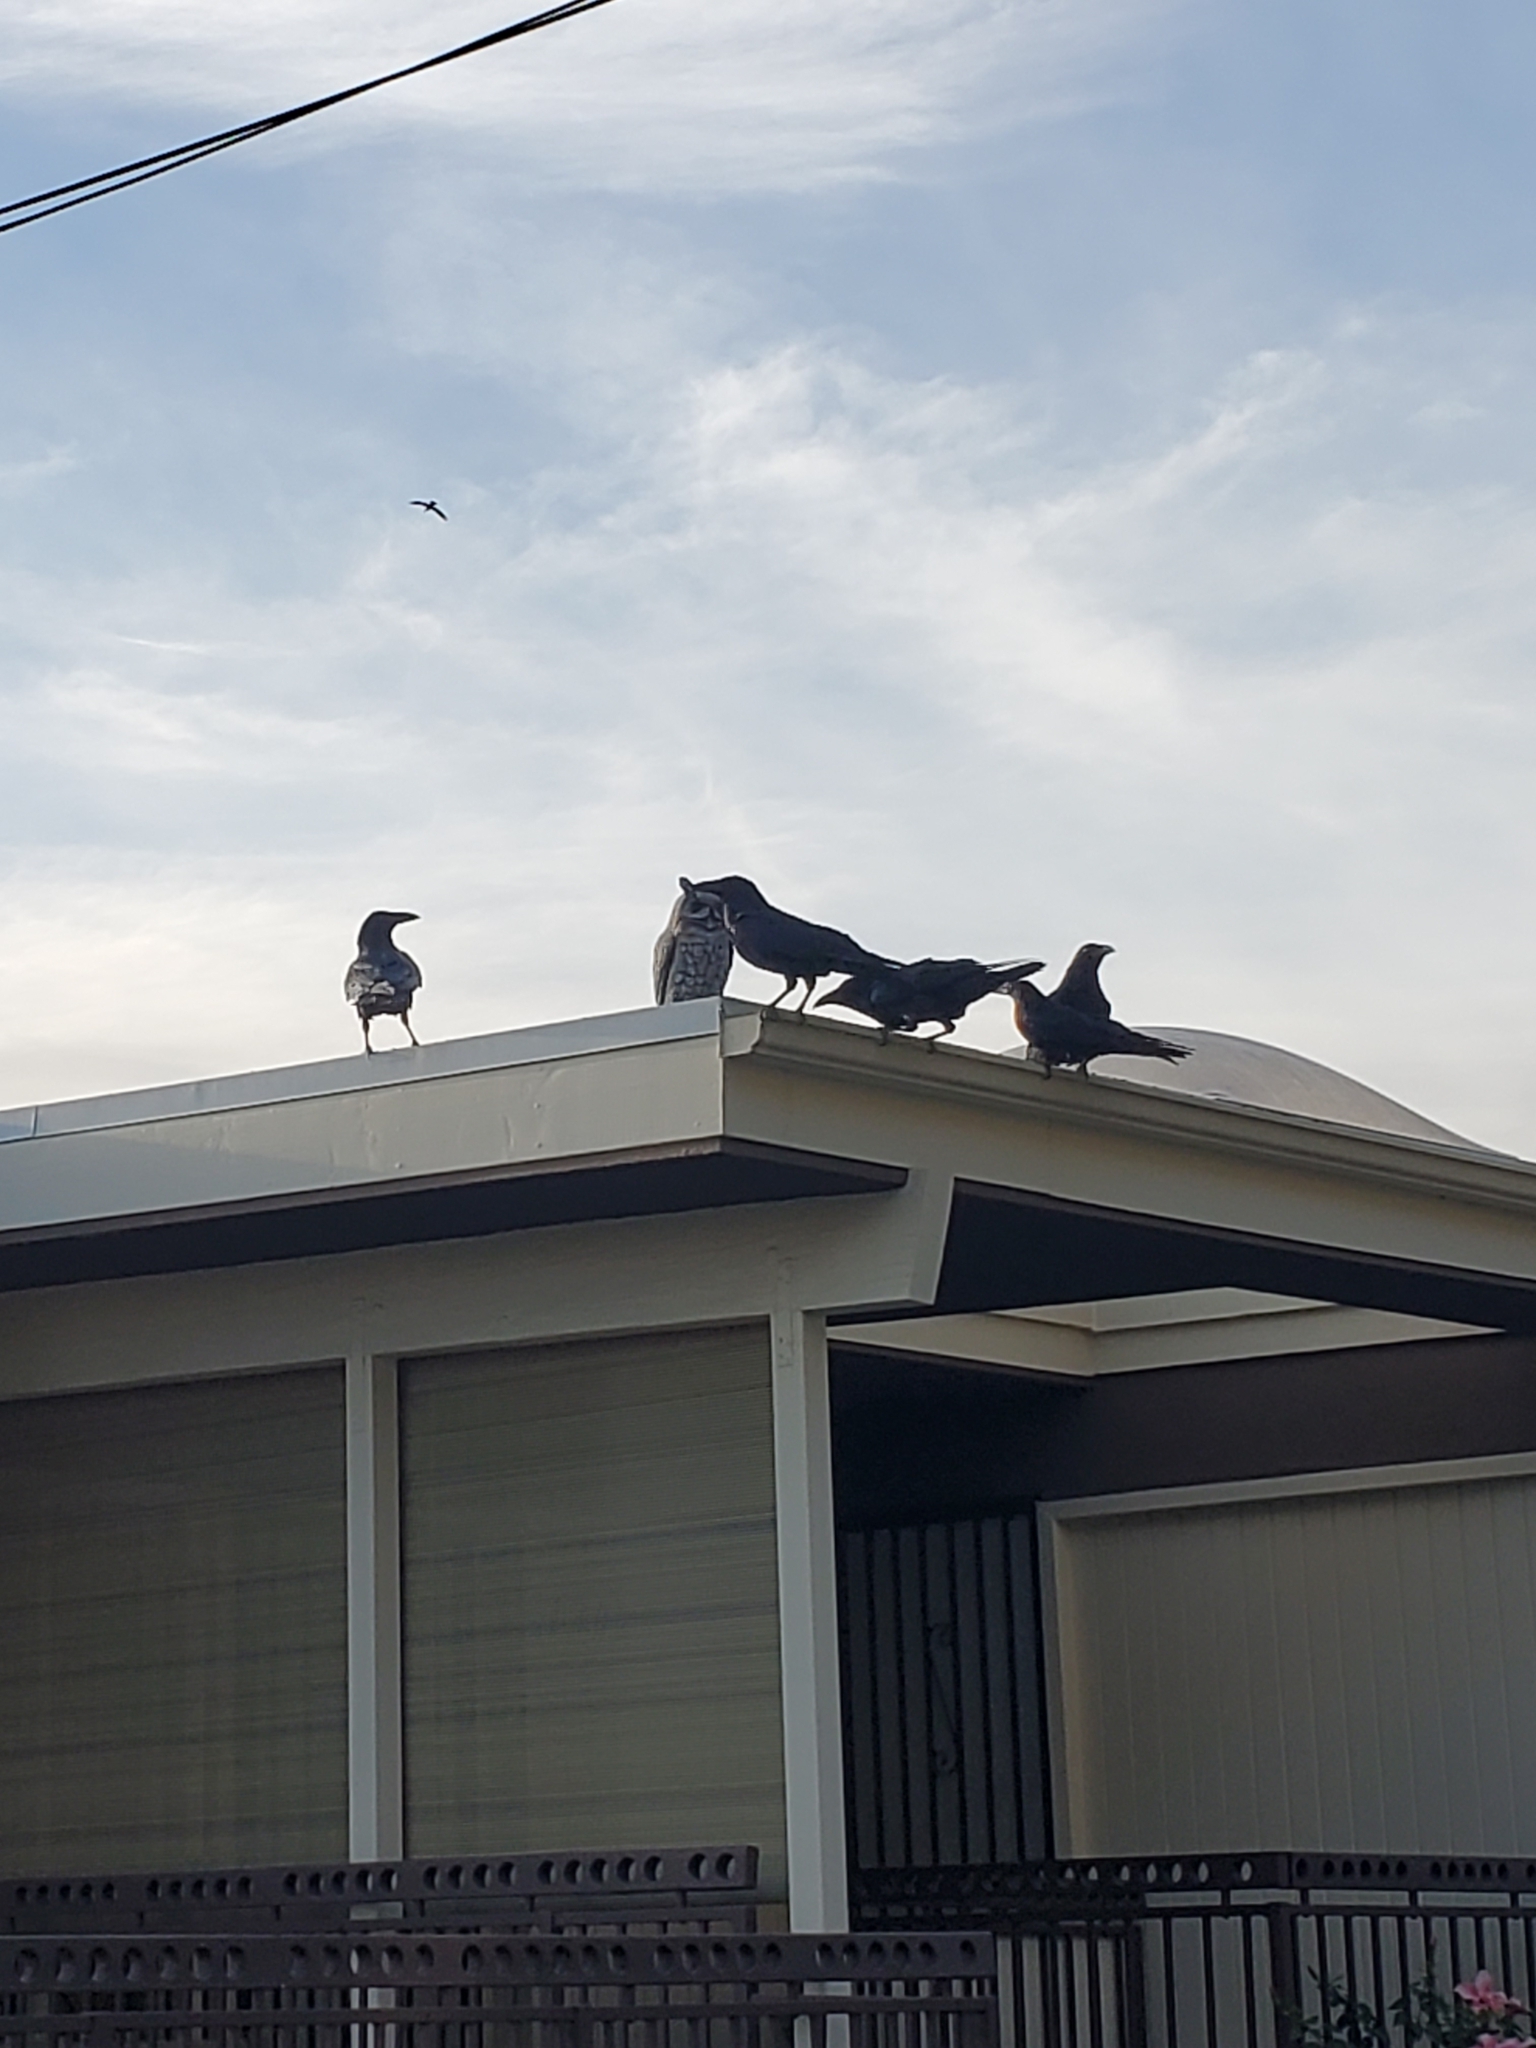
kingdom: Animalia
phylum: Chordata
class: Aves
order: Passeriformes
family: Corvidae
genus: Corvus
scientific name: Corvus corax
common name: Common raven
